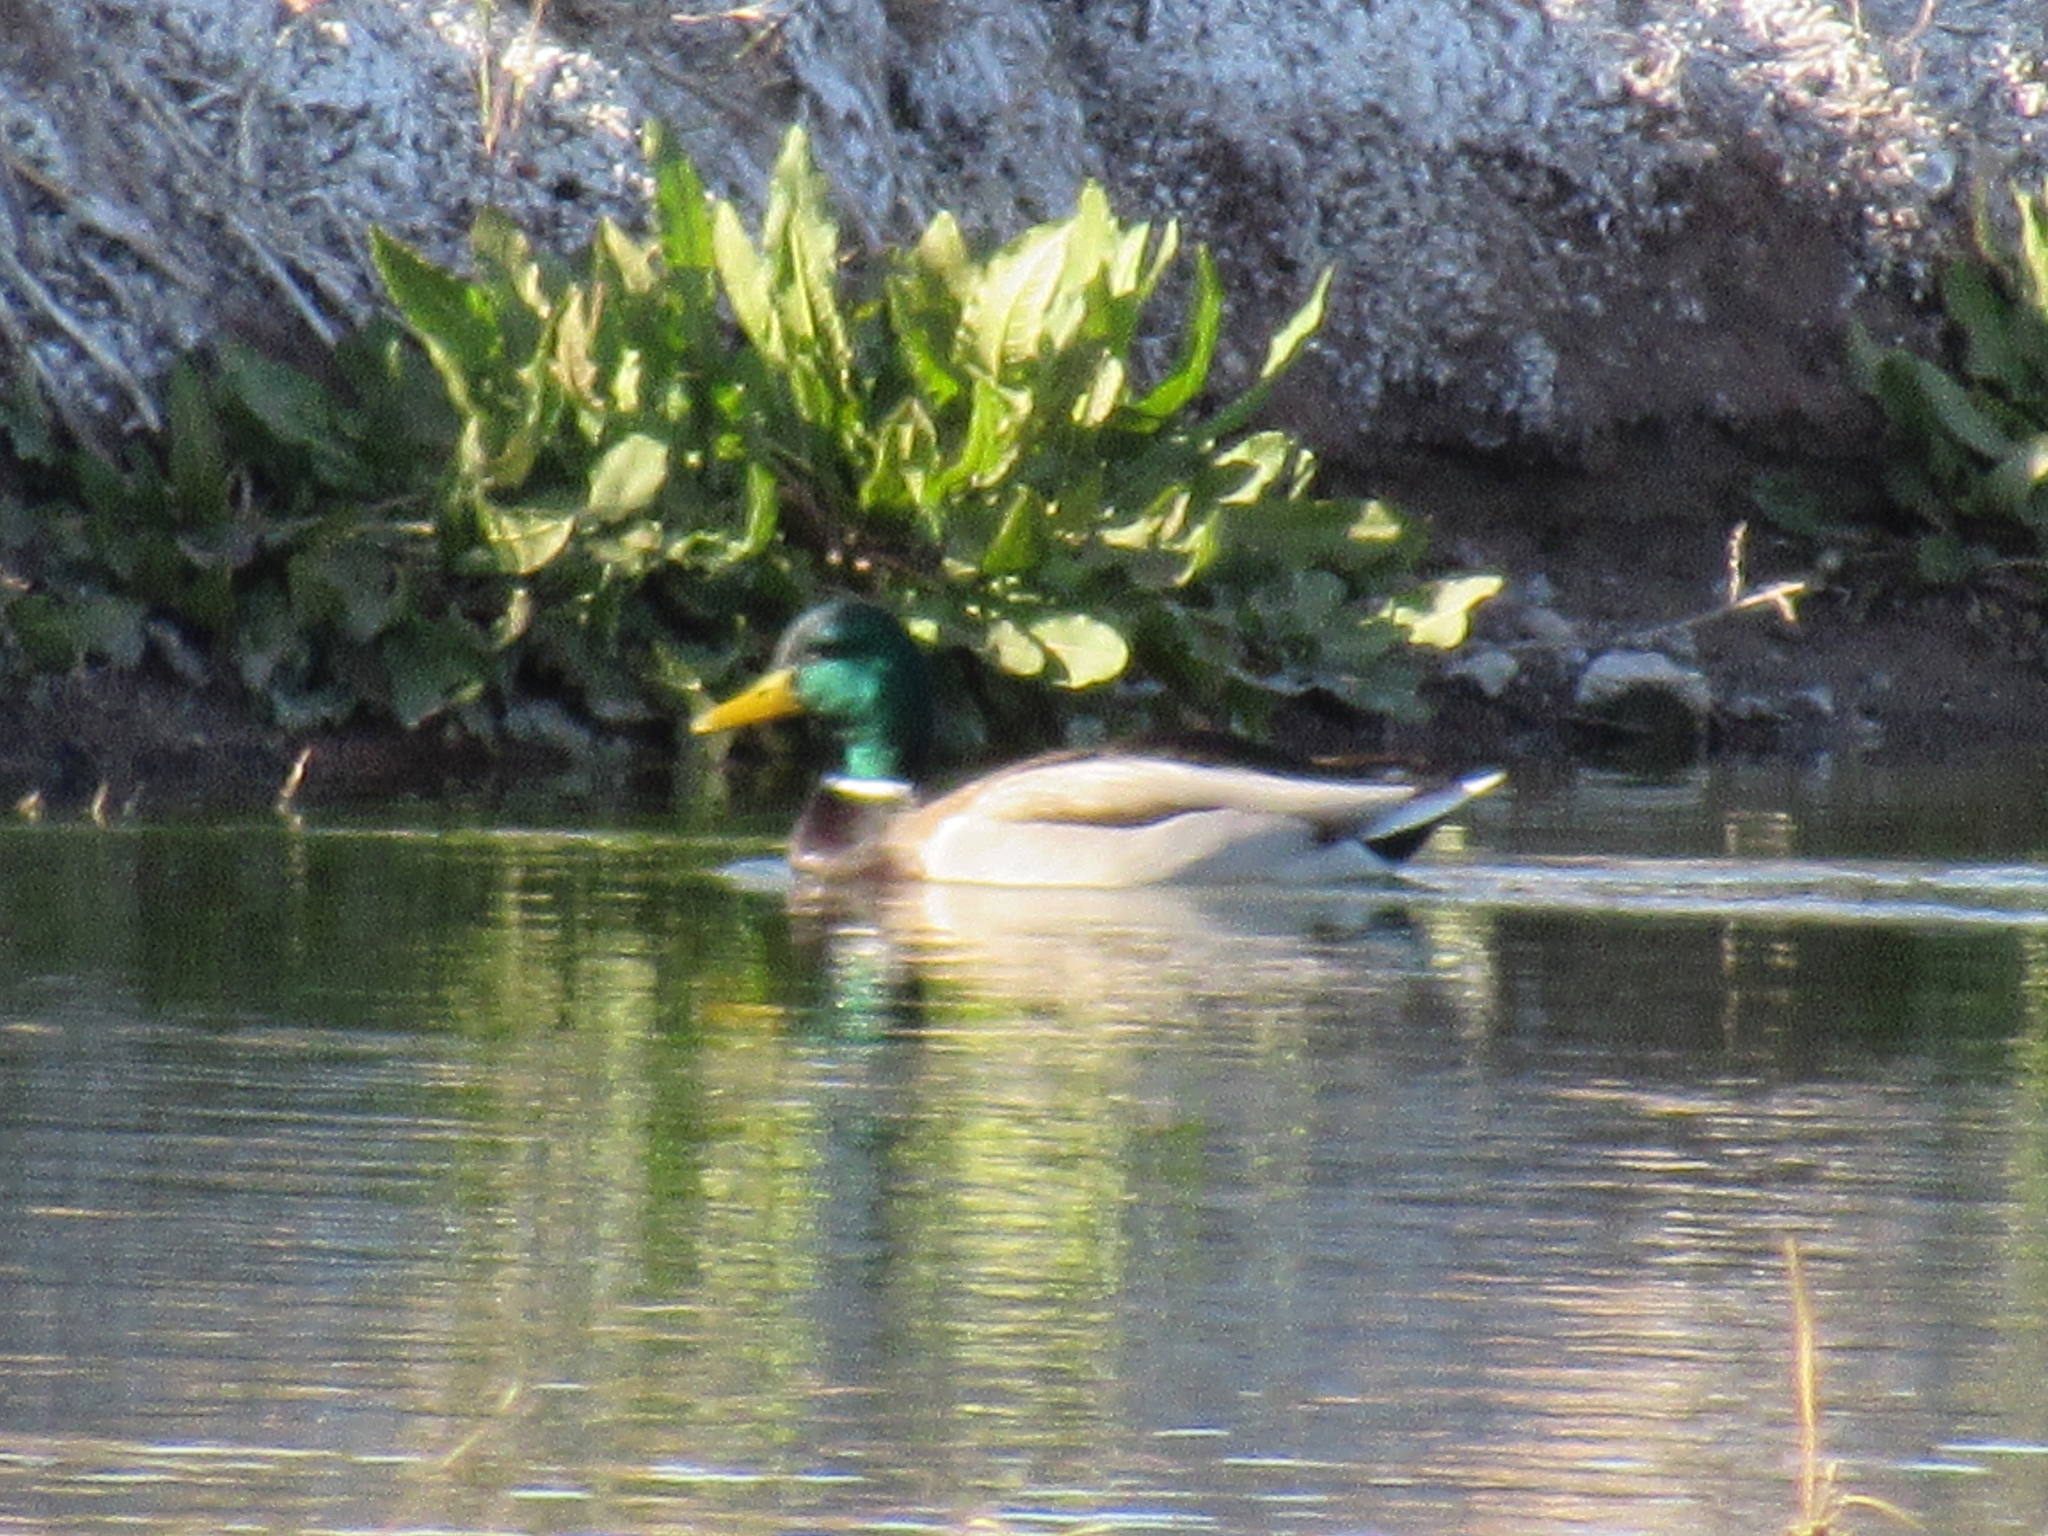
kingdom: Animalia
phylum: Chordata
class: Aves
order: Anseriformes
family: Anatidae
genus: Anas
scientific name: Anas platyrhynchos
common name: Mallard
